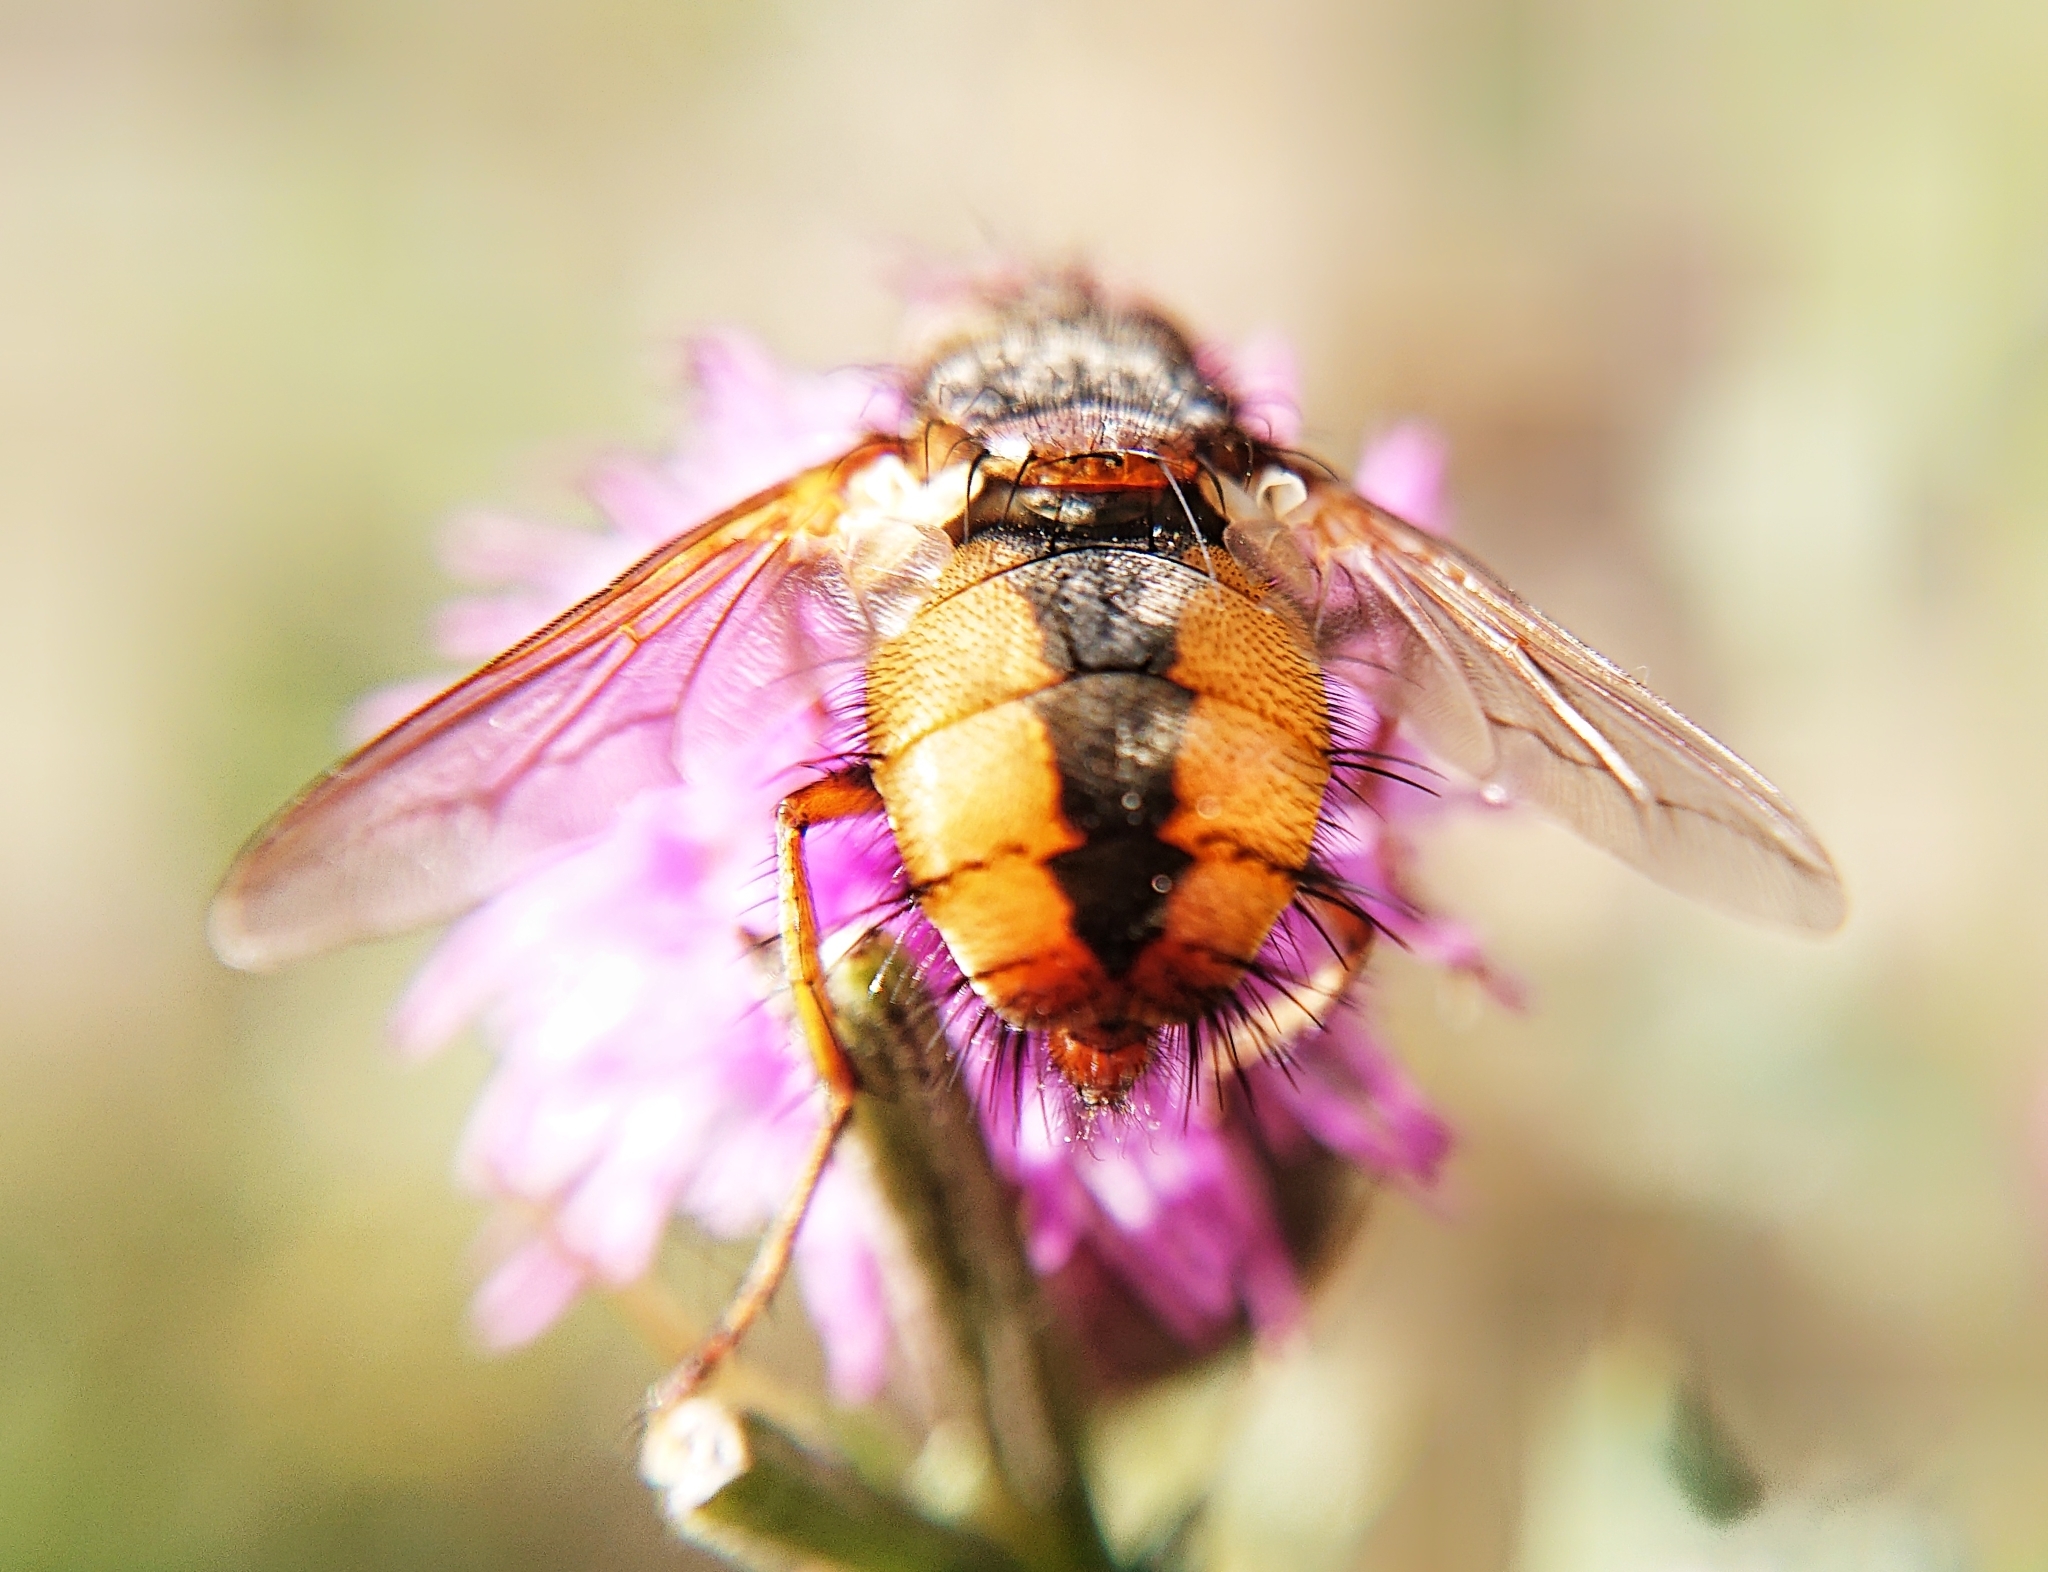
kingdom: Animalia
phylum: Arthropoda
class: Insecta
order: Diptera
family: Tachinidae
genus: Tachina
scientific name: Tachina fera
